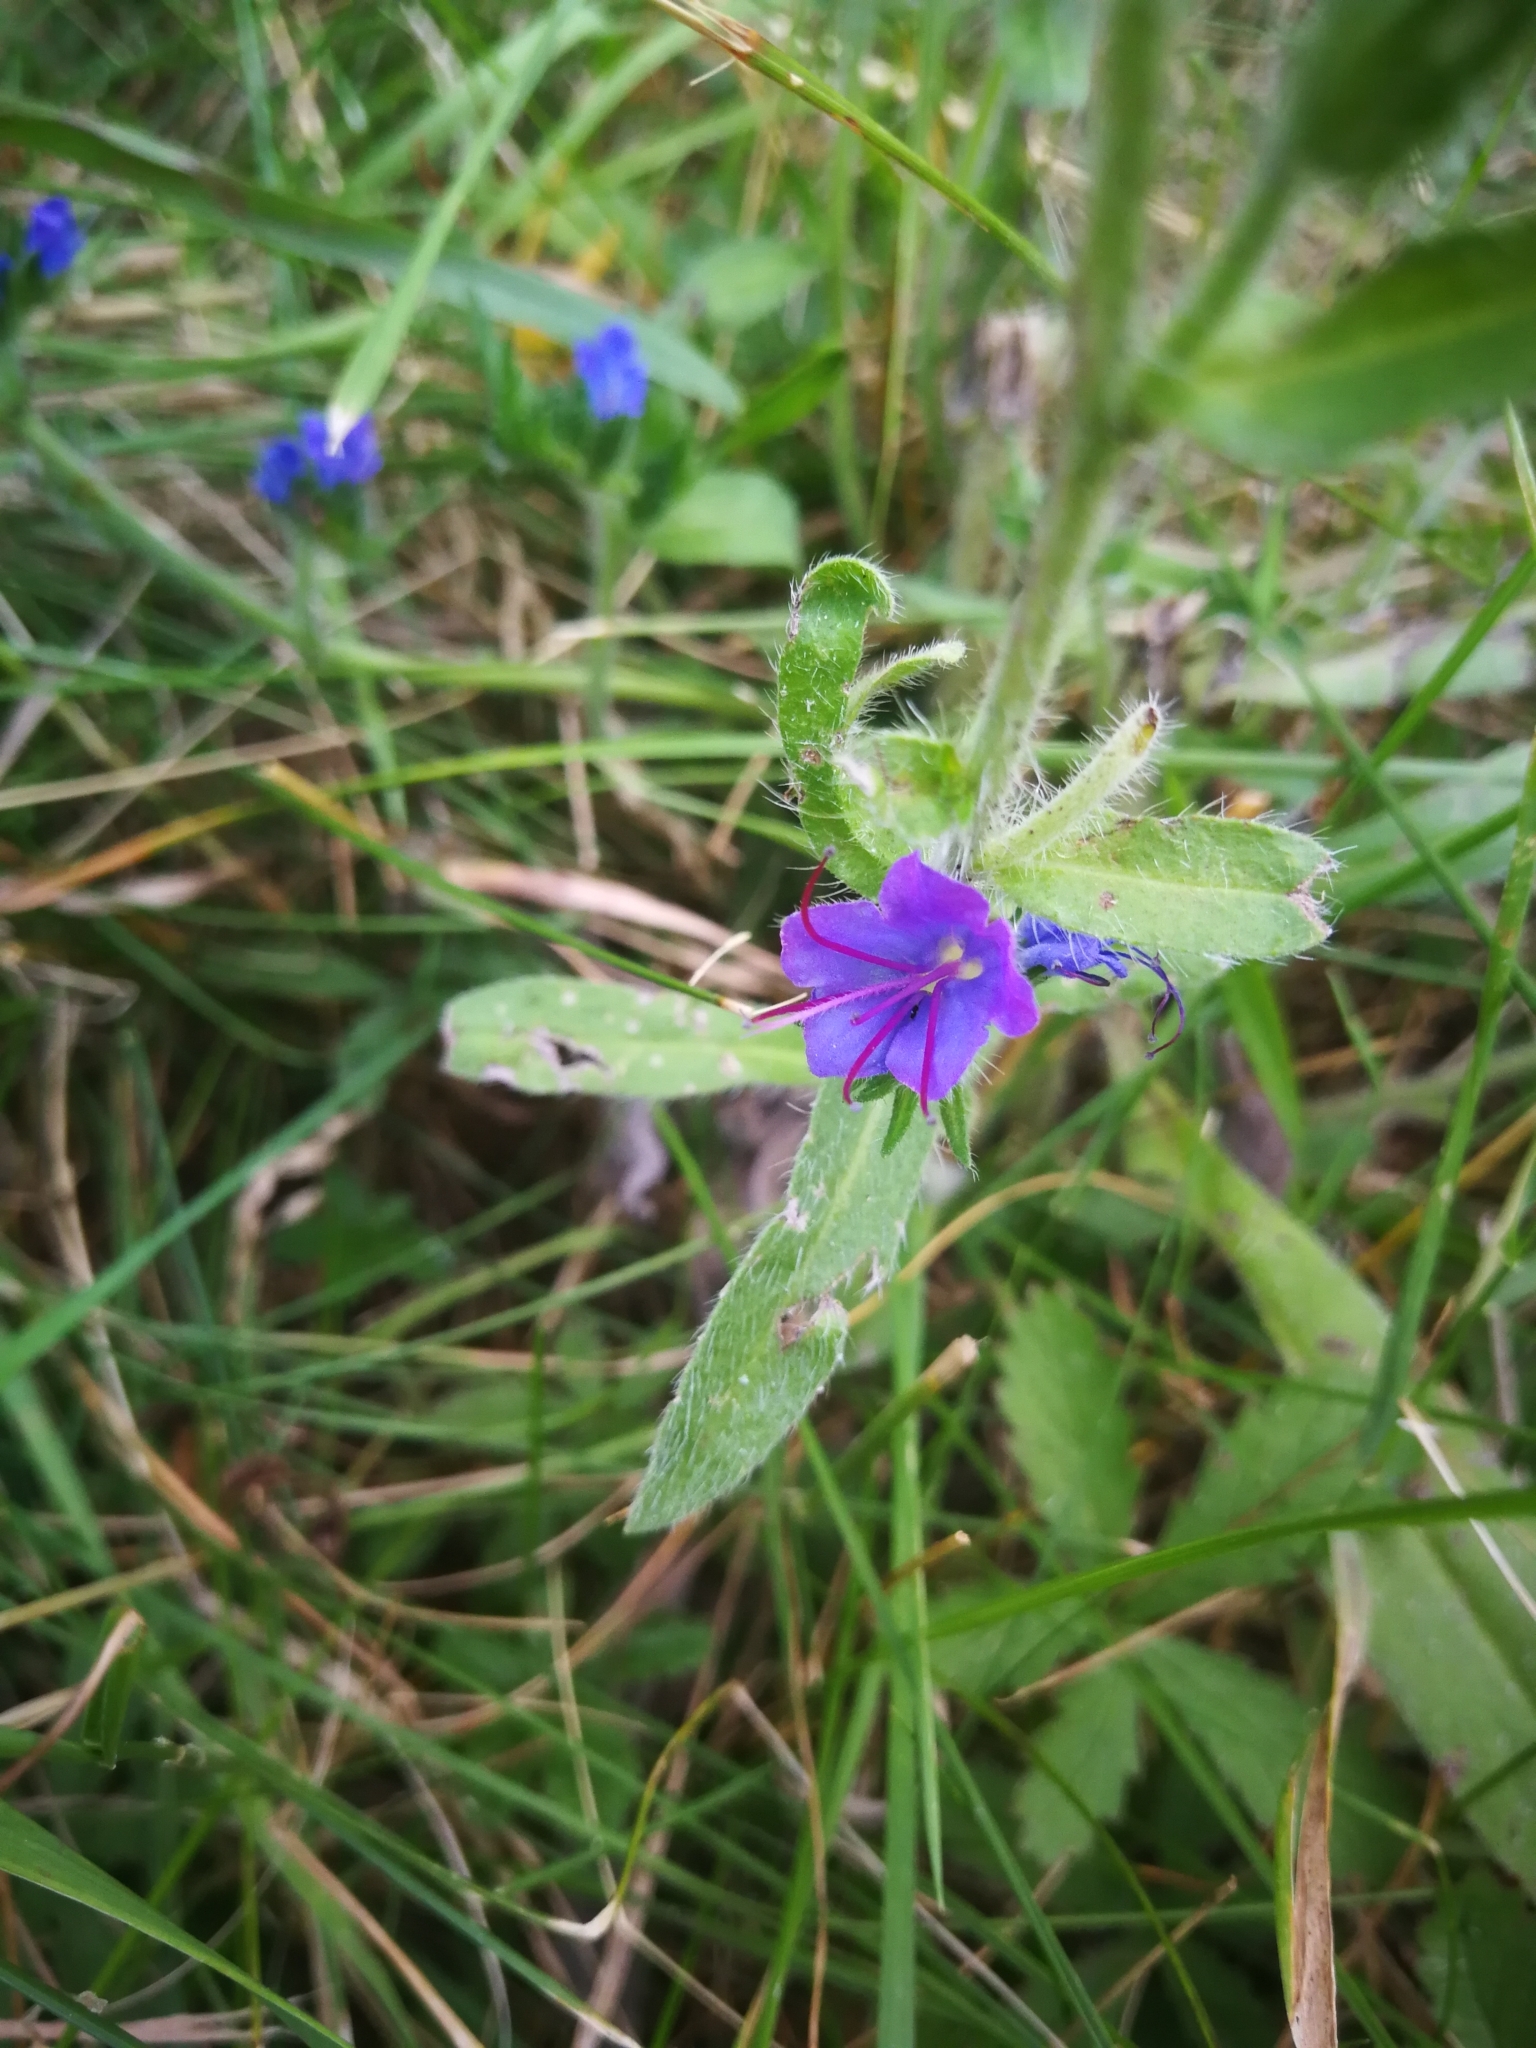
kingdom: Plantae
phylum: Tracheophyta
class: Magnoliopsida
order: Boraginales
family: Boraginaceae
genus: Echium
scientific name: Echium vulgare
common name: Common viper's bugloss
